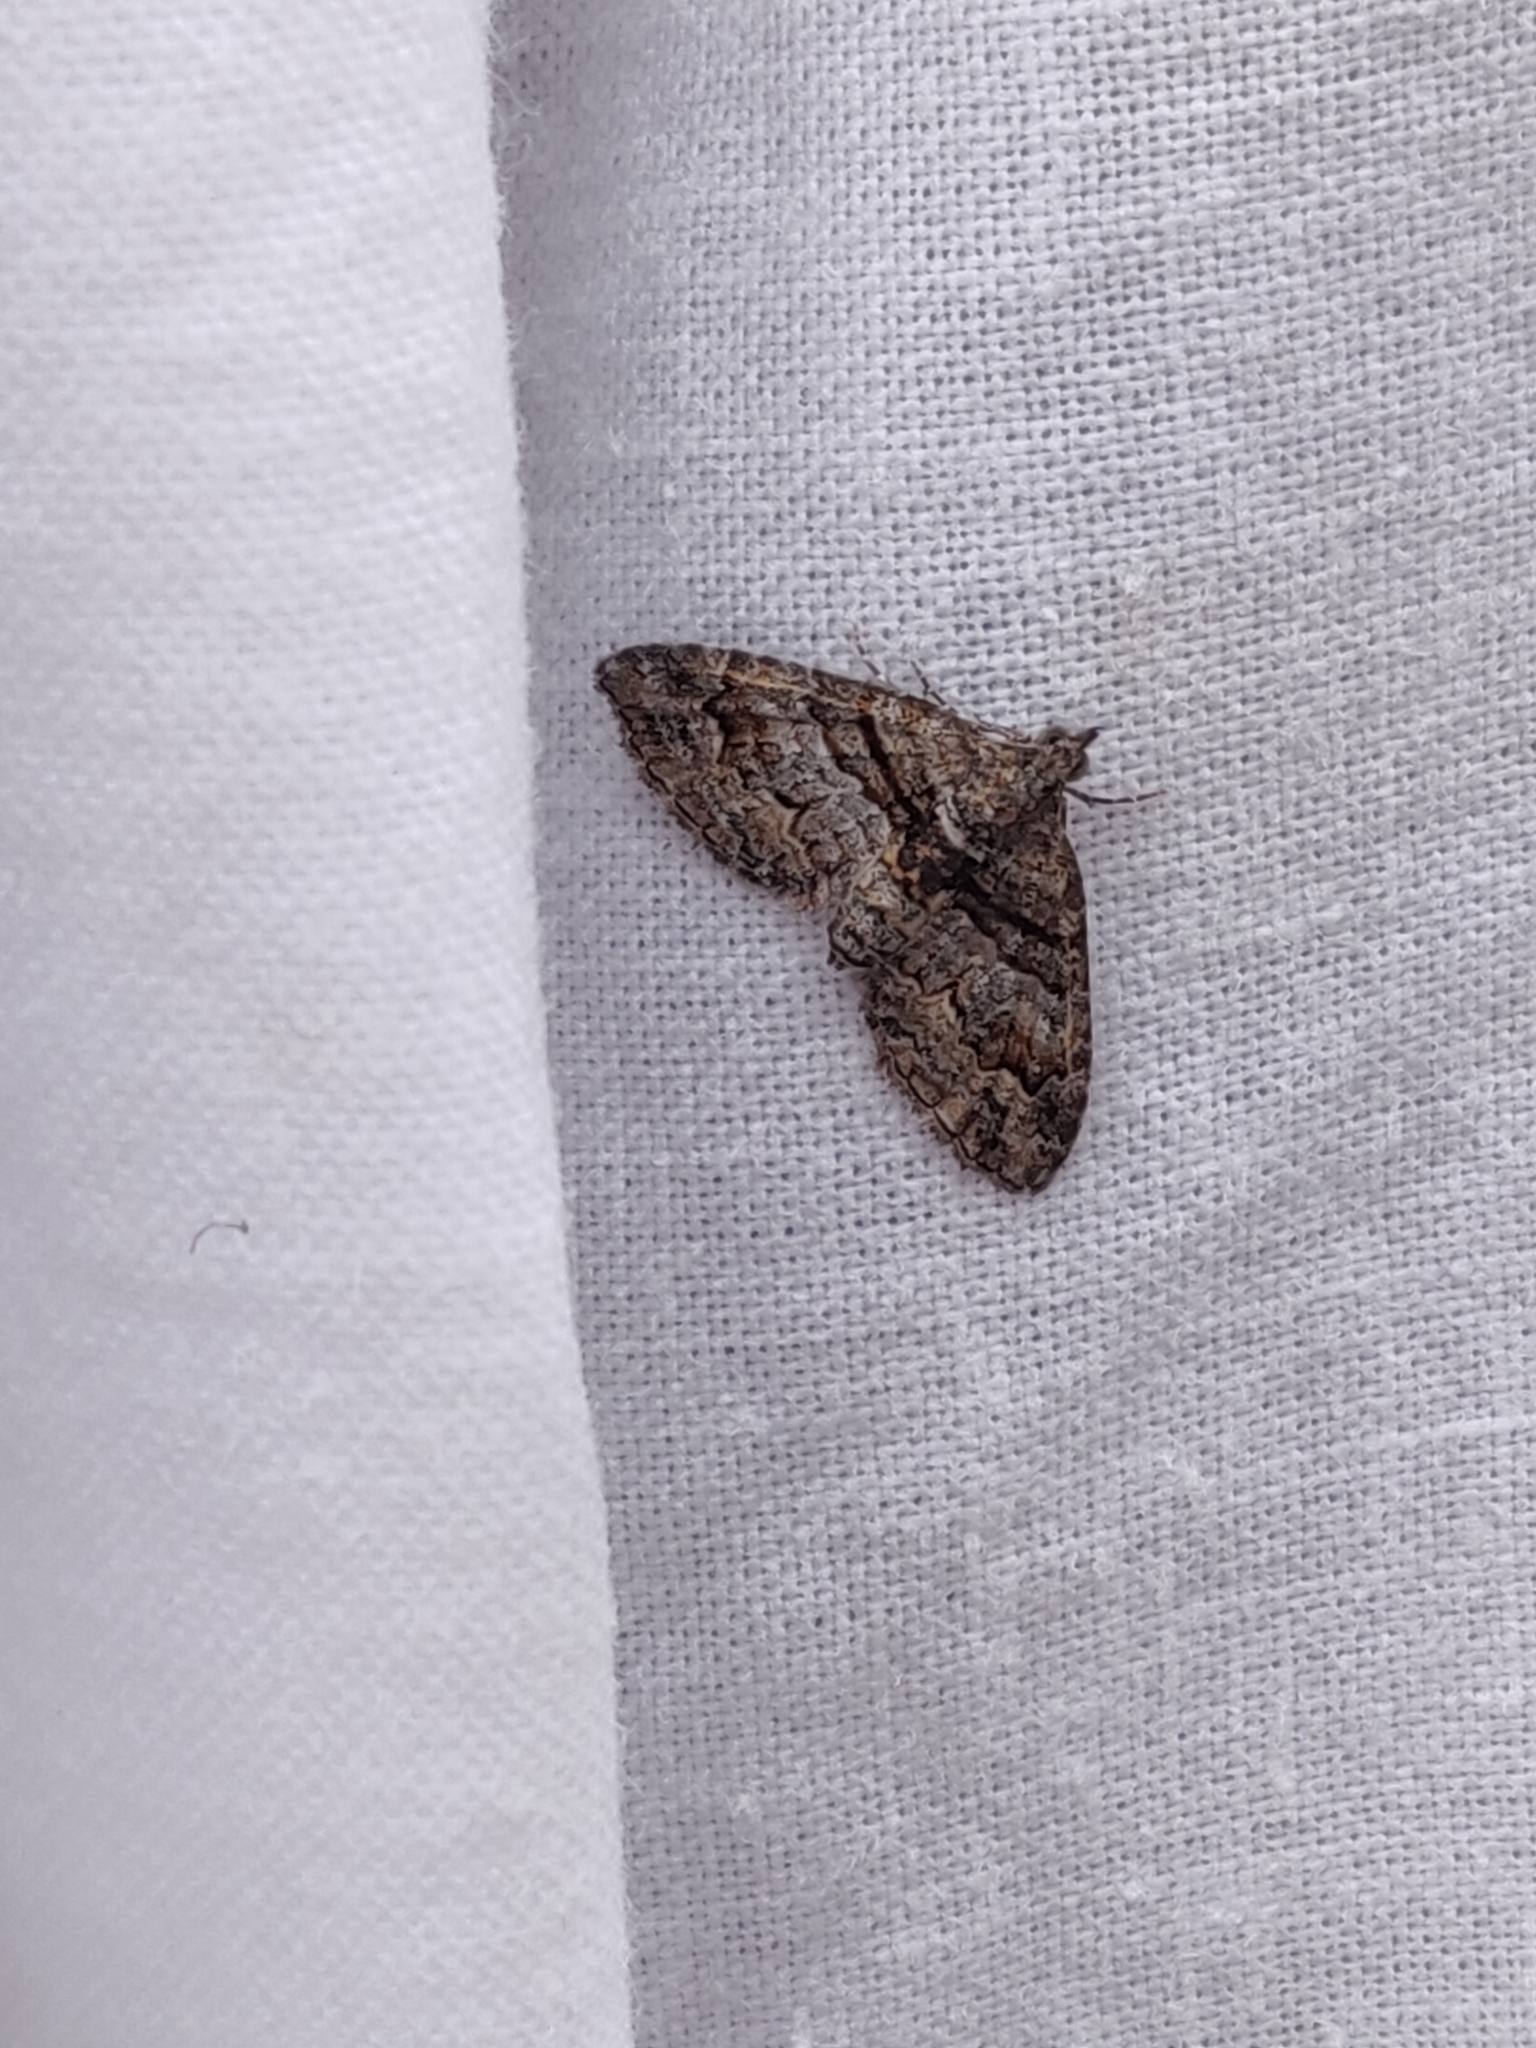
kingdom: Animalia
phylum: Arthropoda
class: Insecta
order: Lepidoptera
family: Geometridae
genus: Phrissogonus
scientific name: Phrissogonus laticostata
